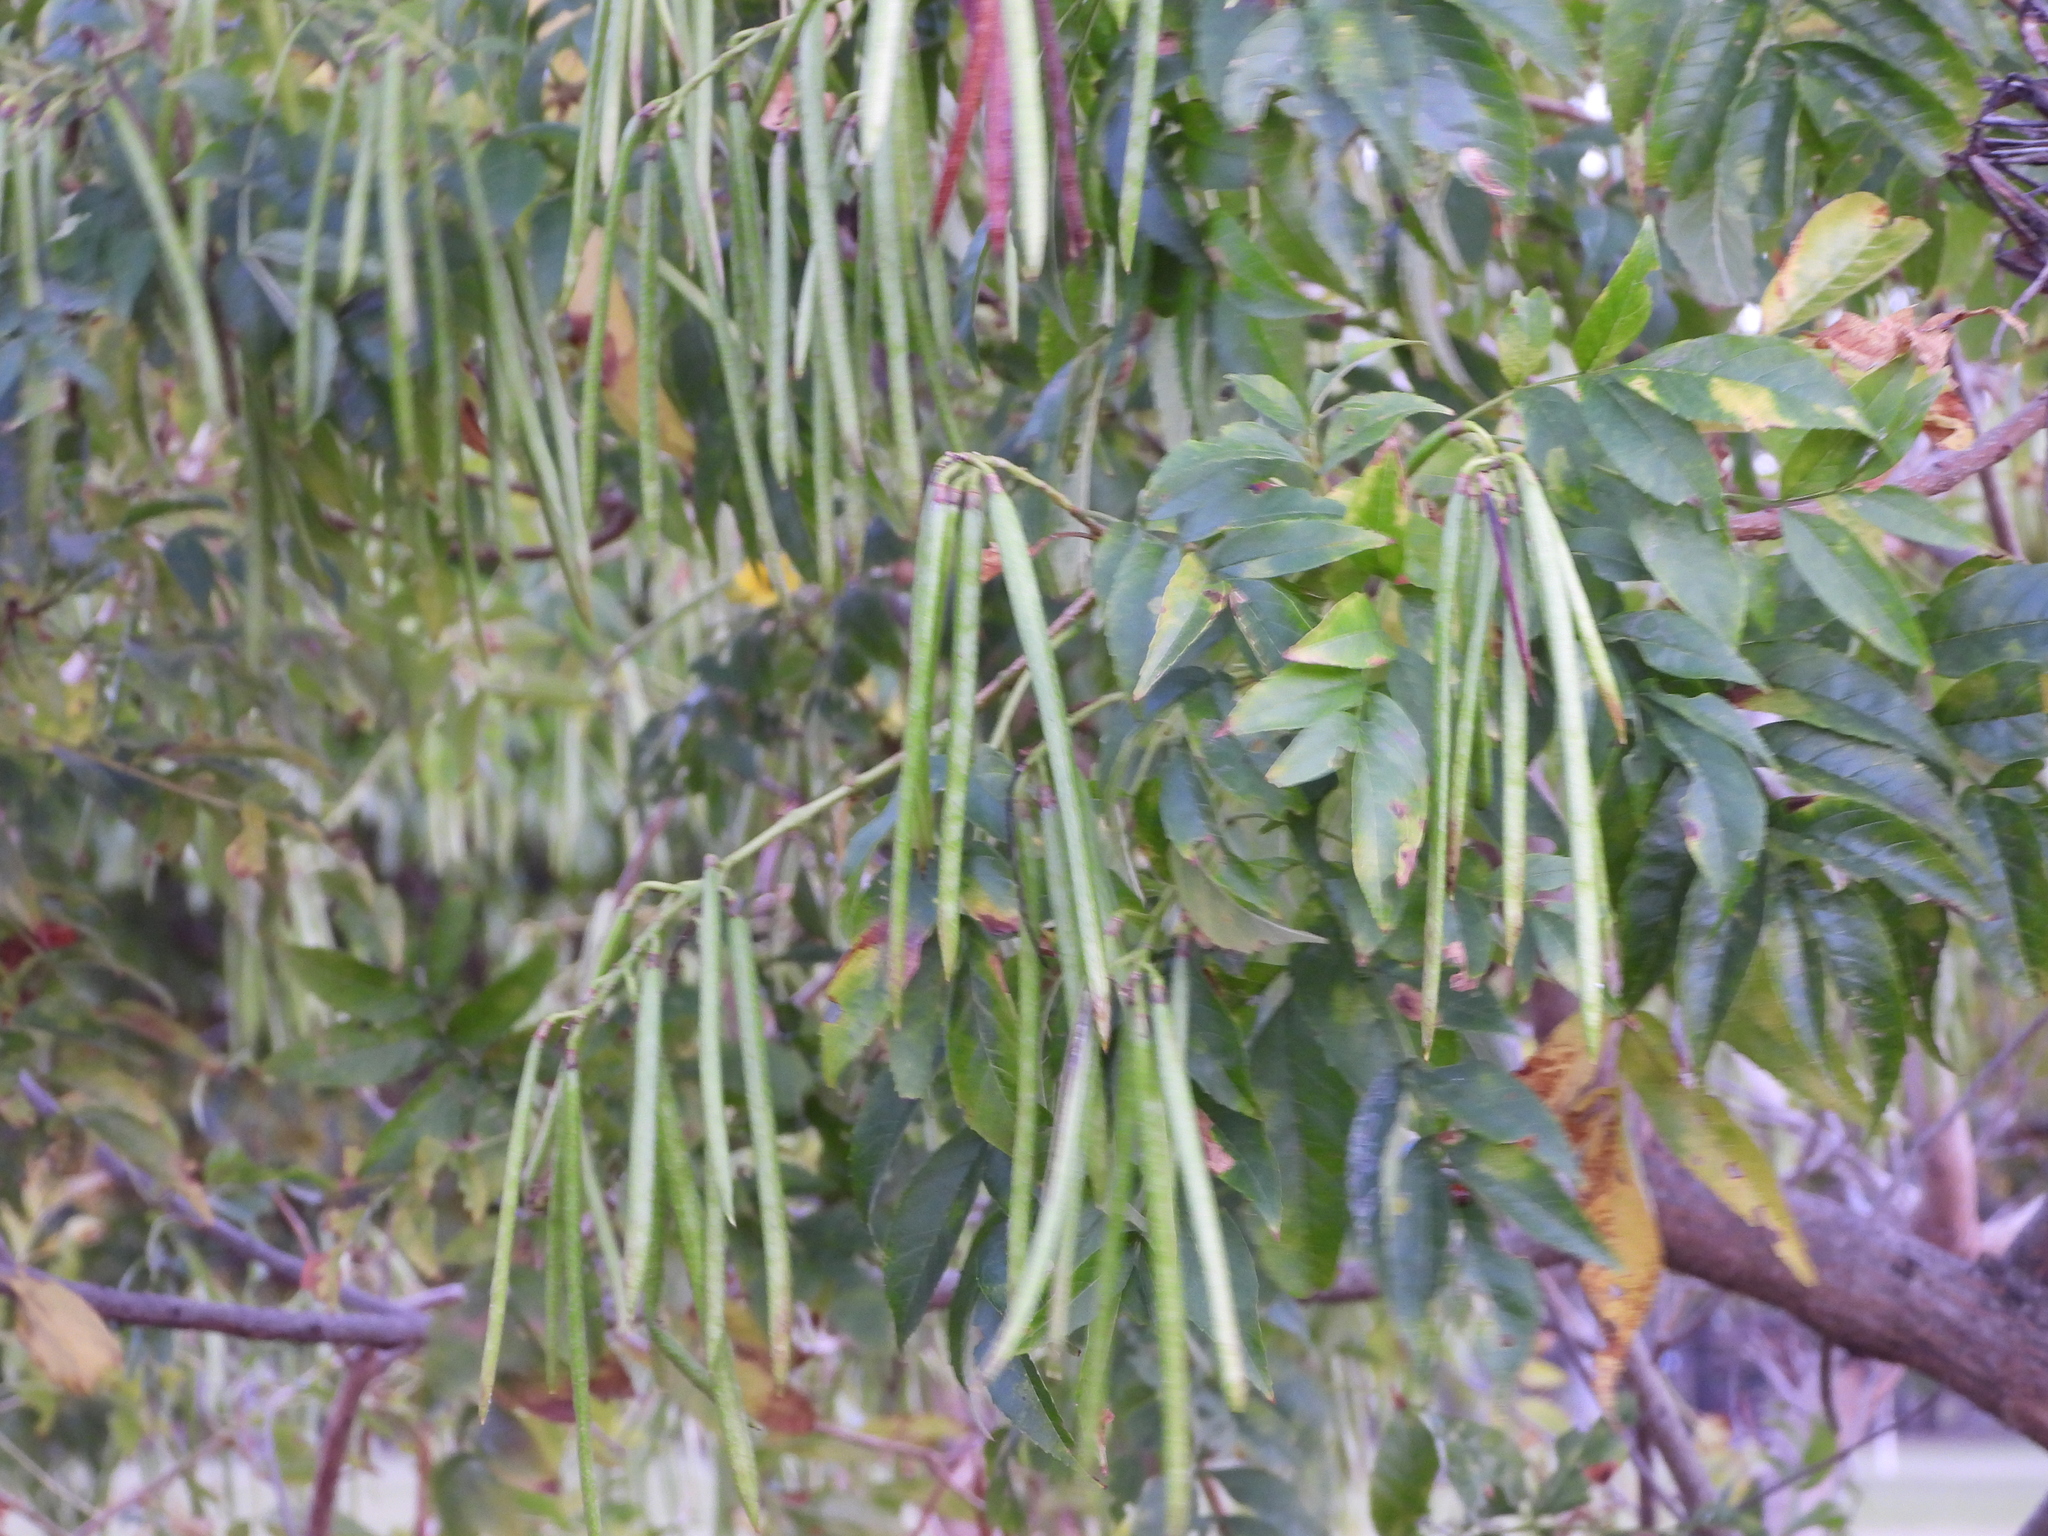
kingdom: Plantae
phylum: Tracheophyta
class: Magnoliopsida
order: Lamiales
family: Bignoniaceae
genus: Tecoma
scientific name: Tecoma stans
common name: Yellow trumpetbush
